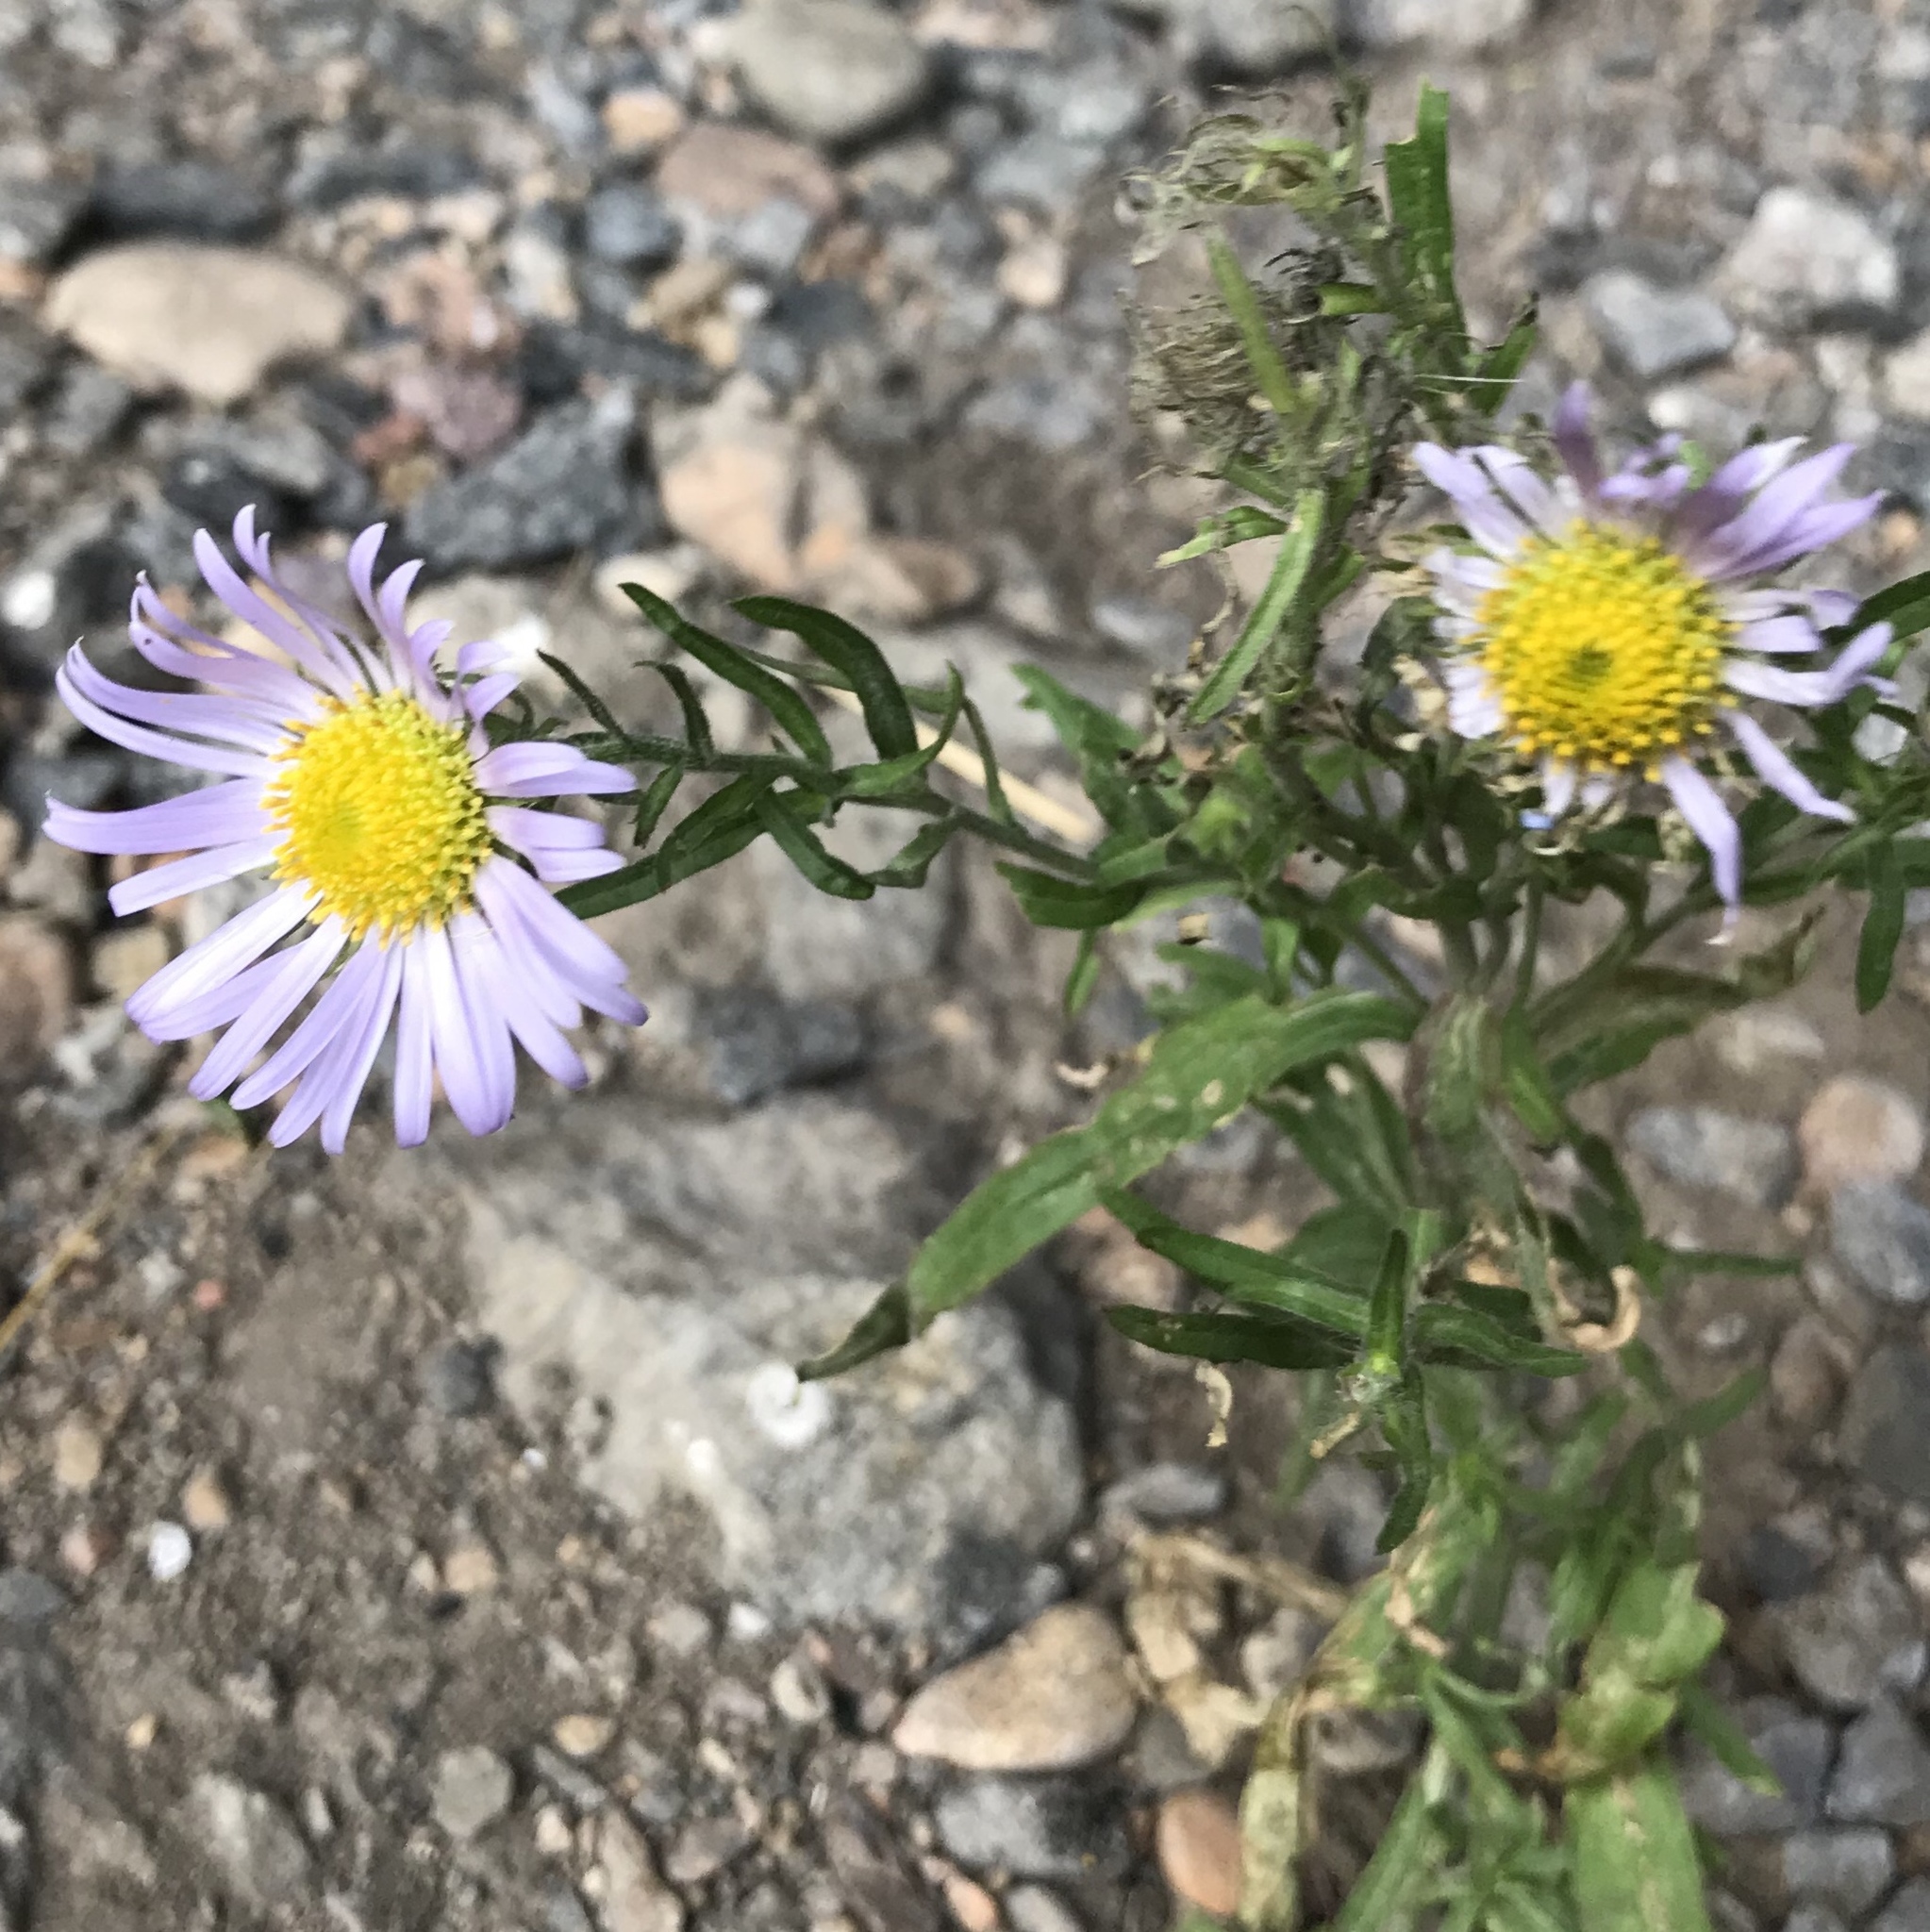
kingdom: Plantae
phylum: Tracheophyta
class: Magnoliopsida
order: Asterales
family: Asteraceae
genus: Aster
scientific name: Aster biennis
